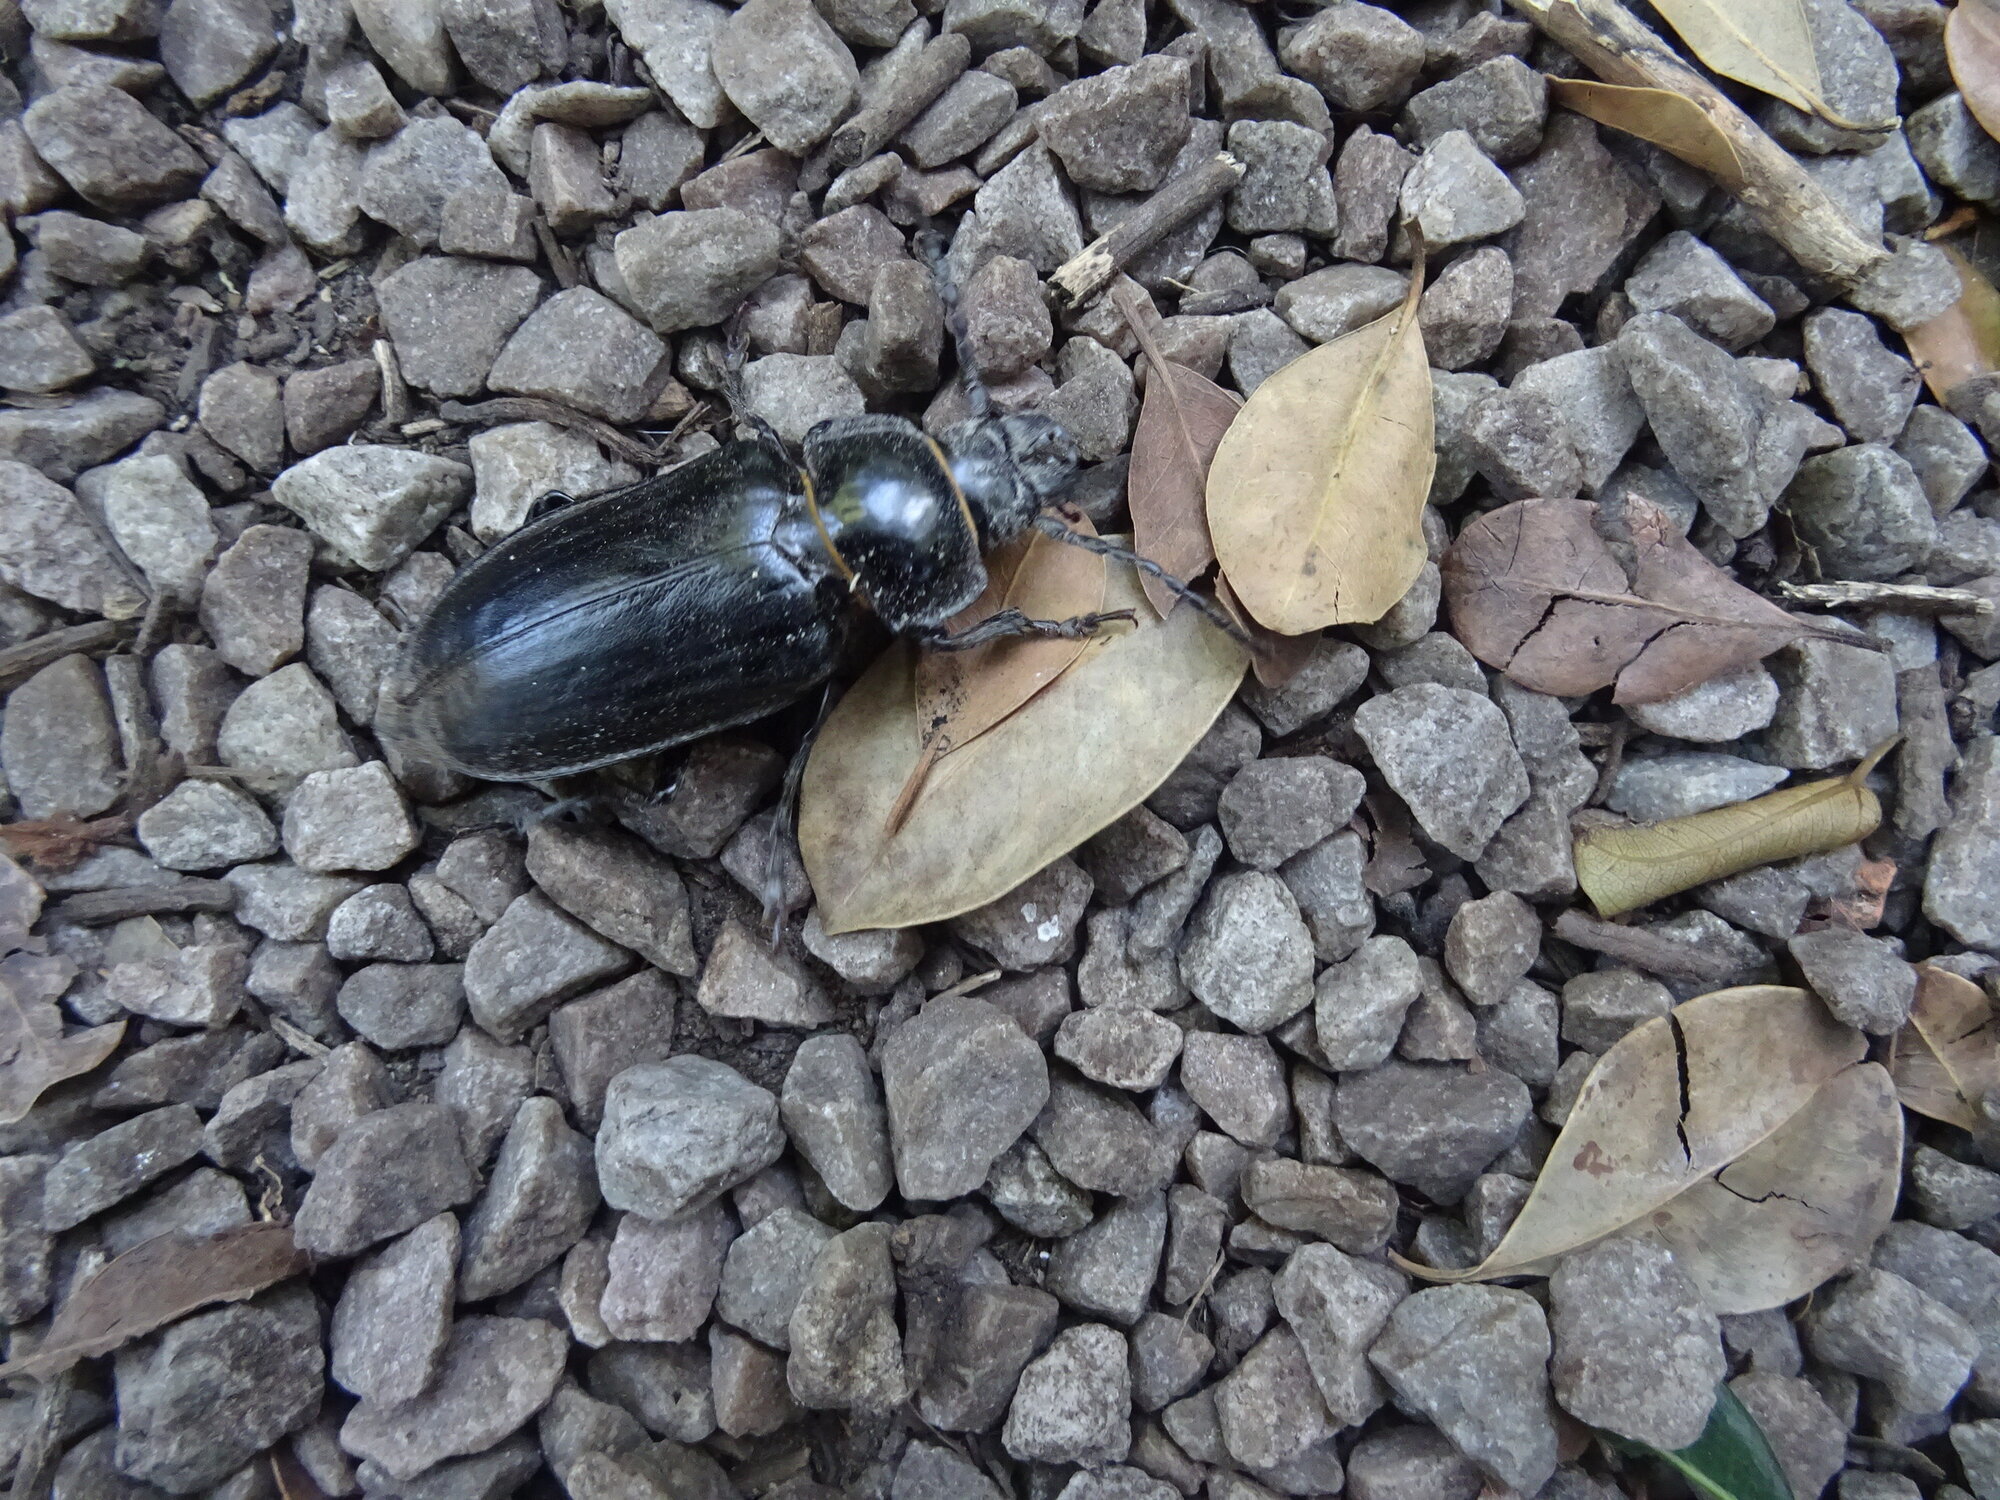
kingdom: Animalia
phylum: Arthropoda
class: Insecta
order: Coleoptera
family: Cerambycidae
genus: Notophysis
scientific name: Notophysis caffra
